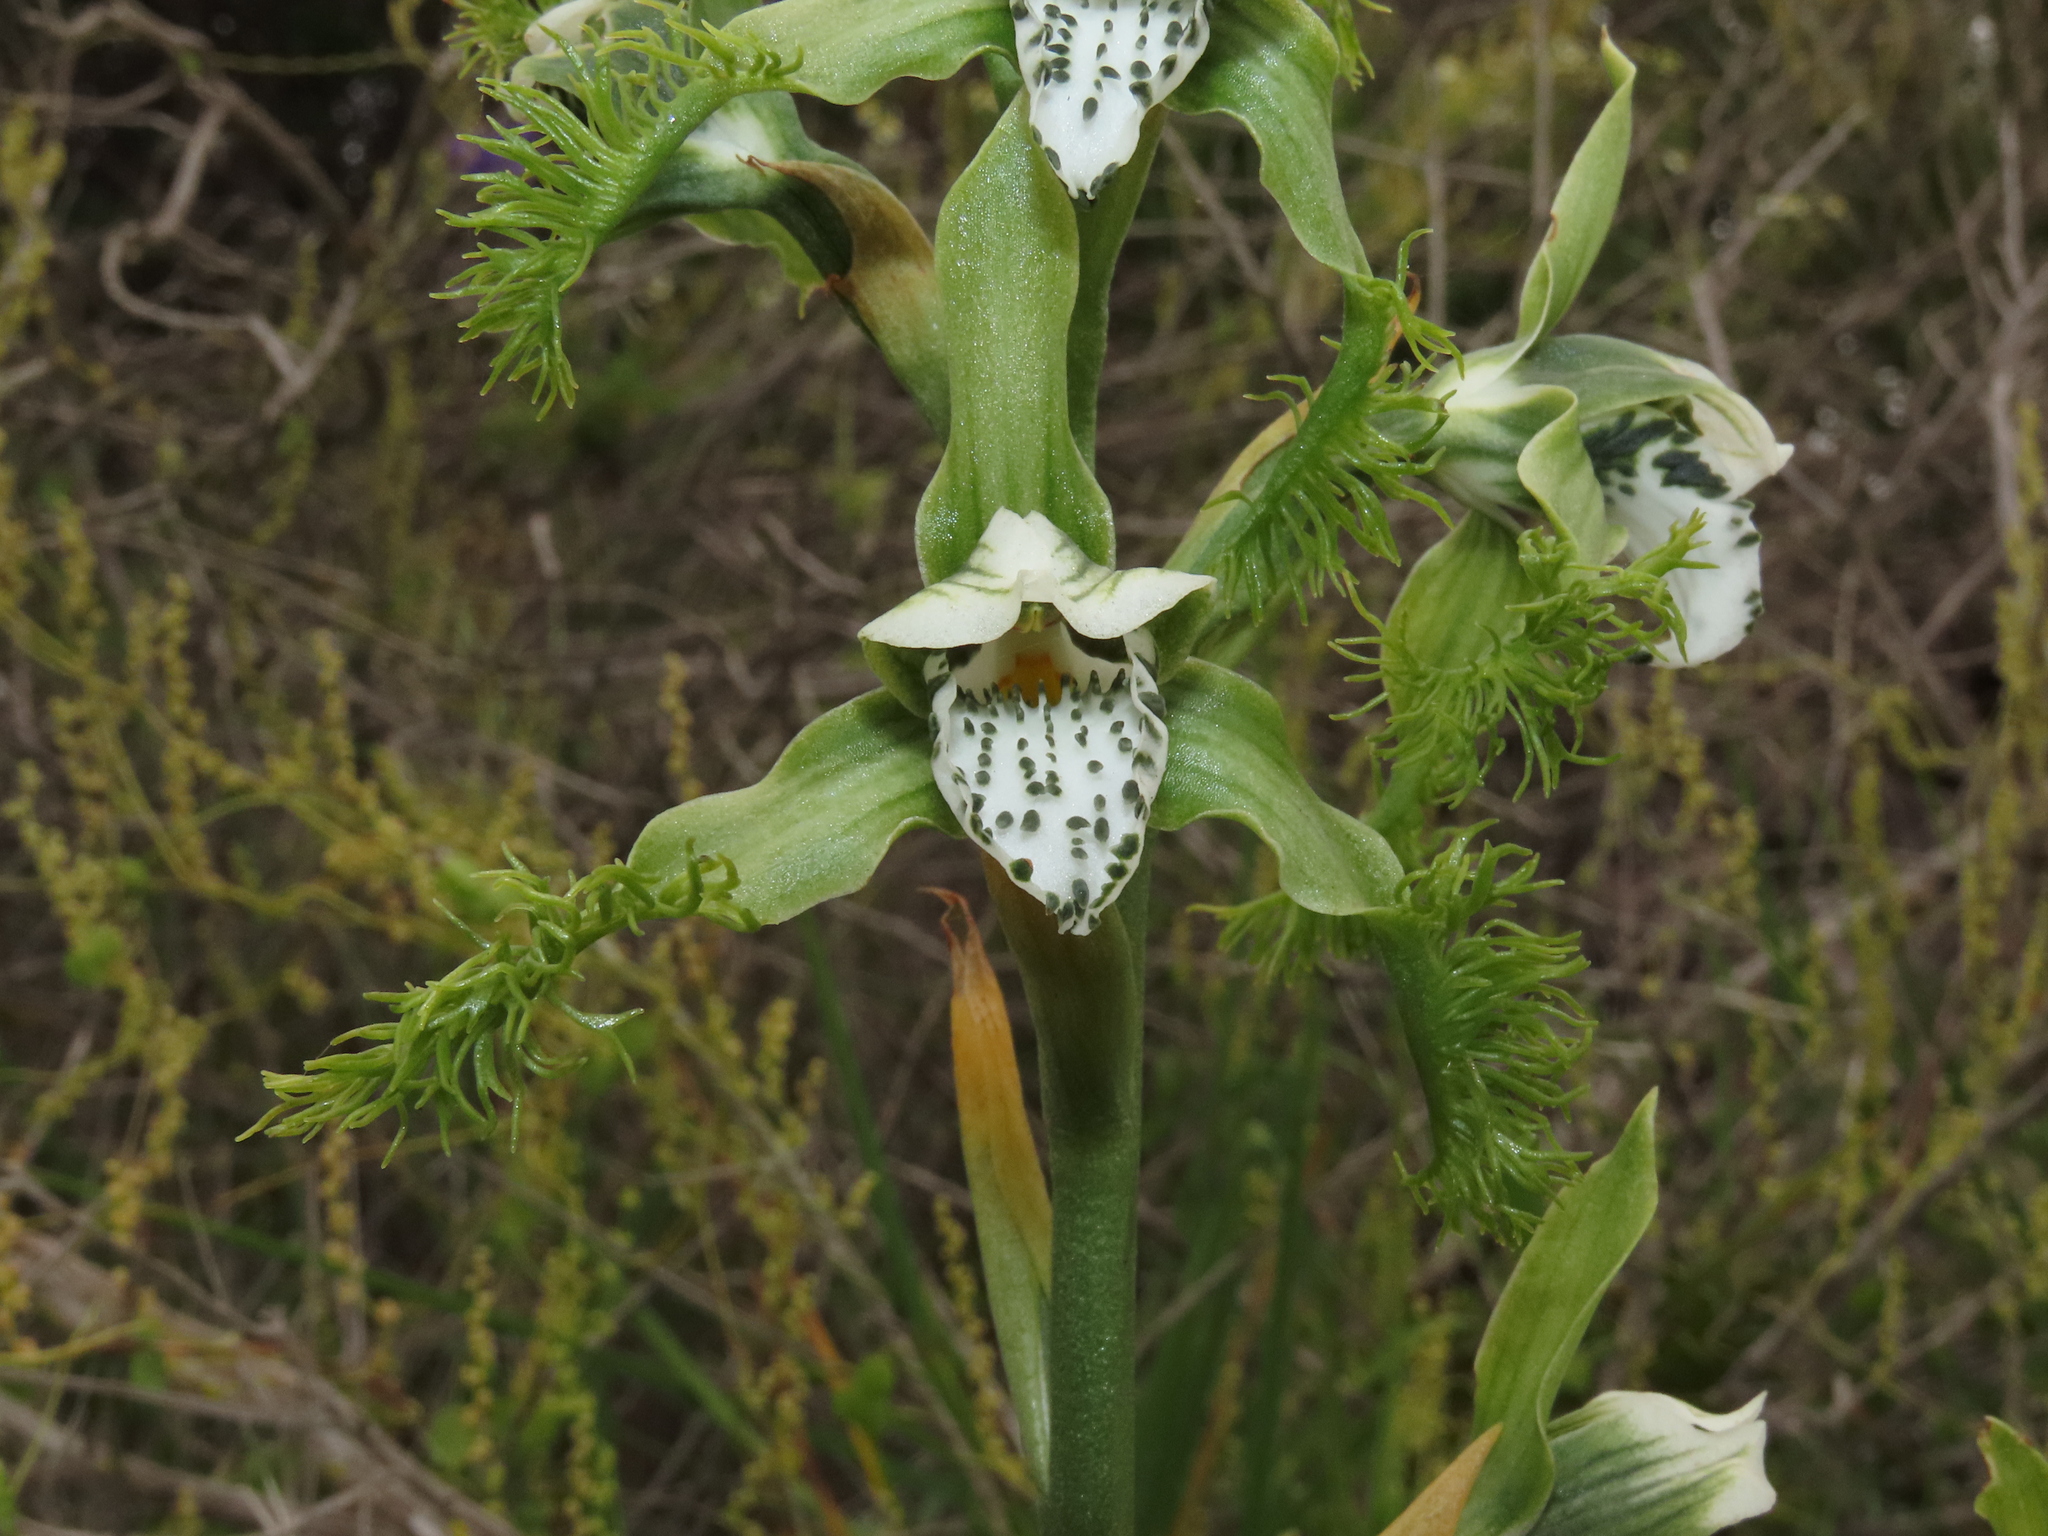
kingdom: Plantae
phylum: Tracheophyta
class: Liliopsida
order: Asparagales
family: Orchidaceae
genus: Bipinnula
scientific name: Bipinnula fimbriata
